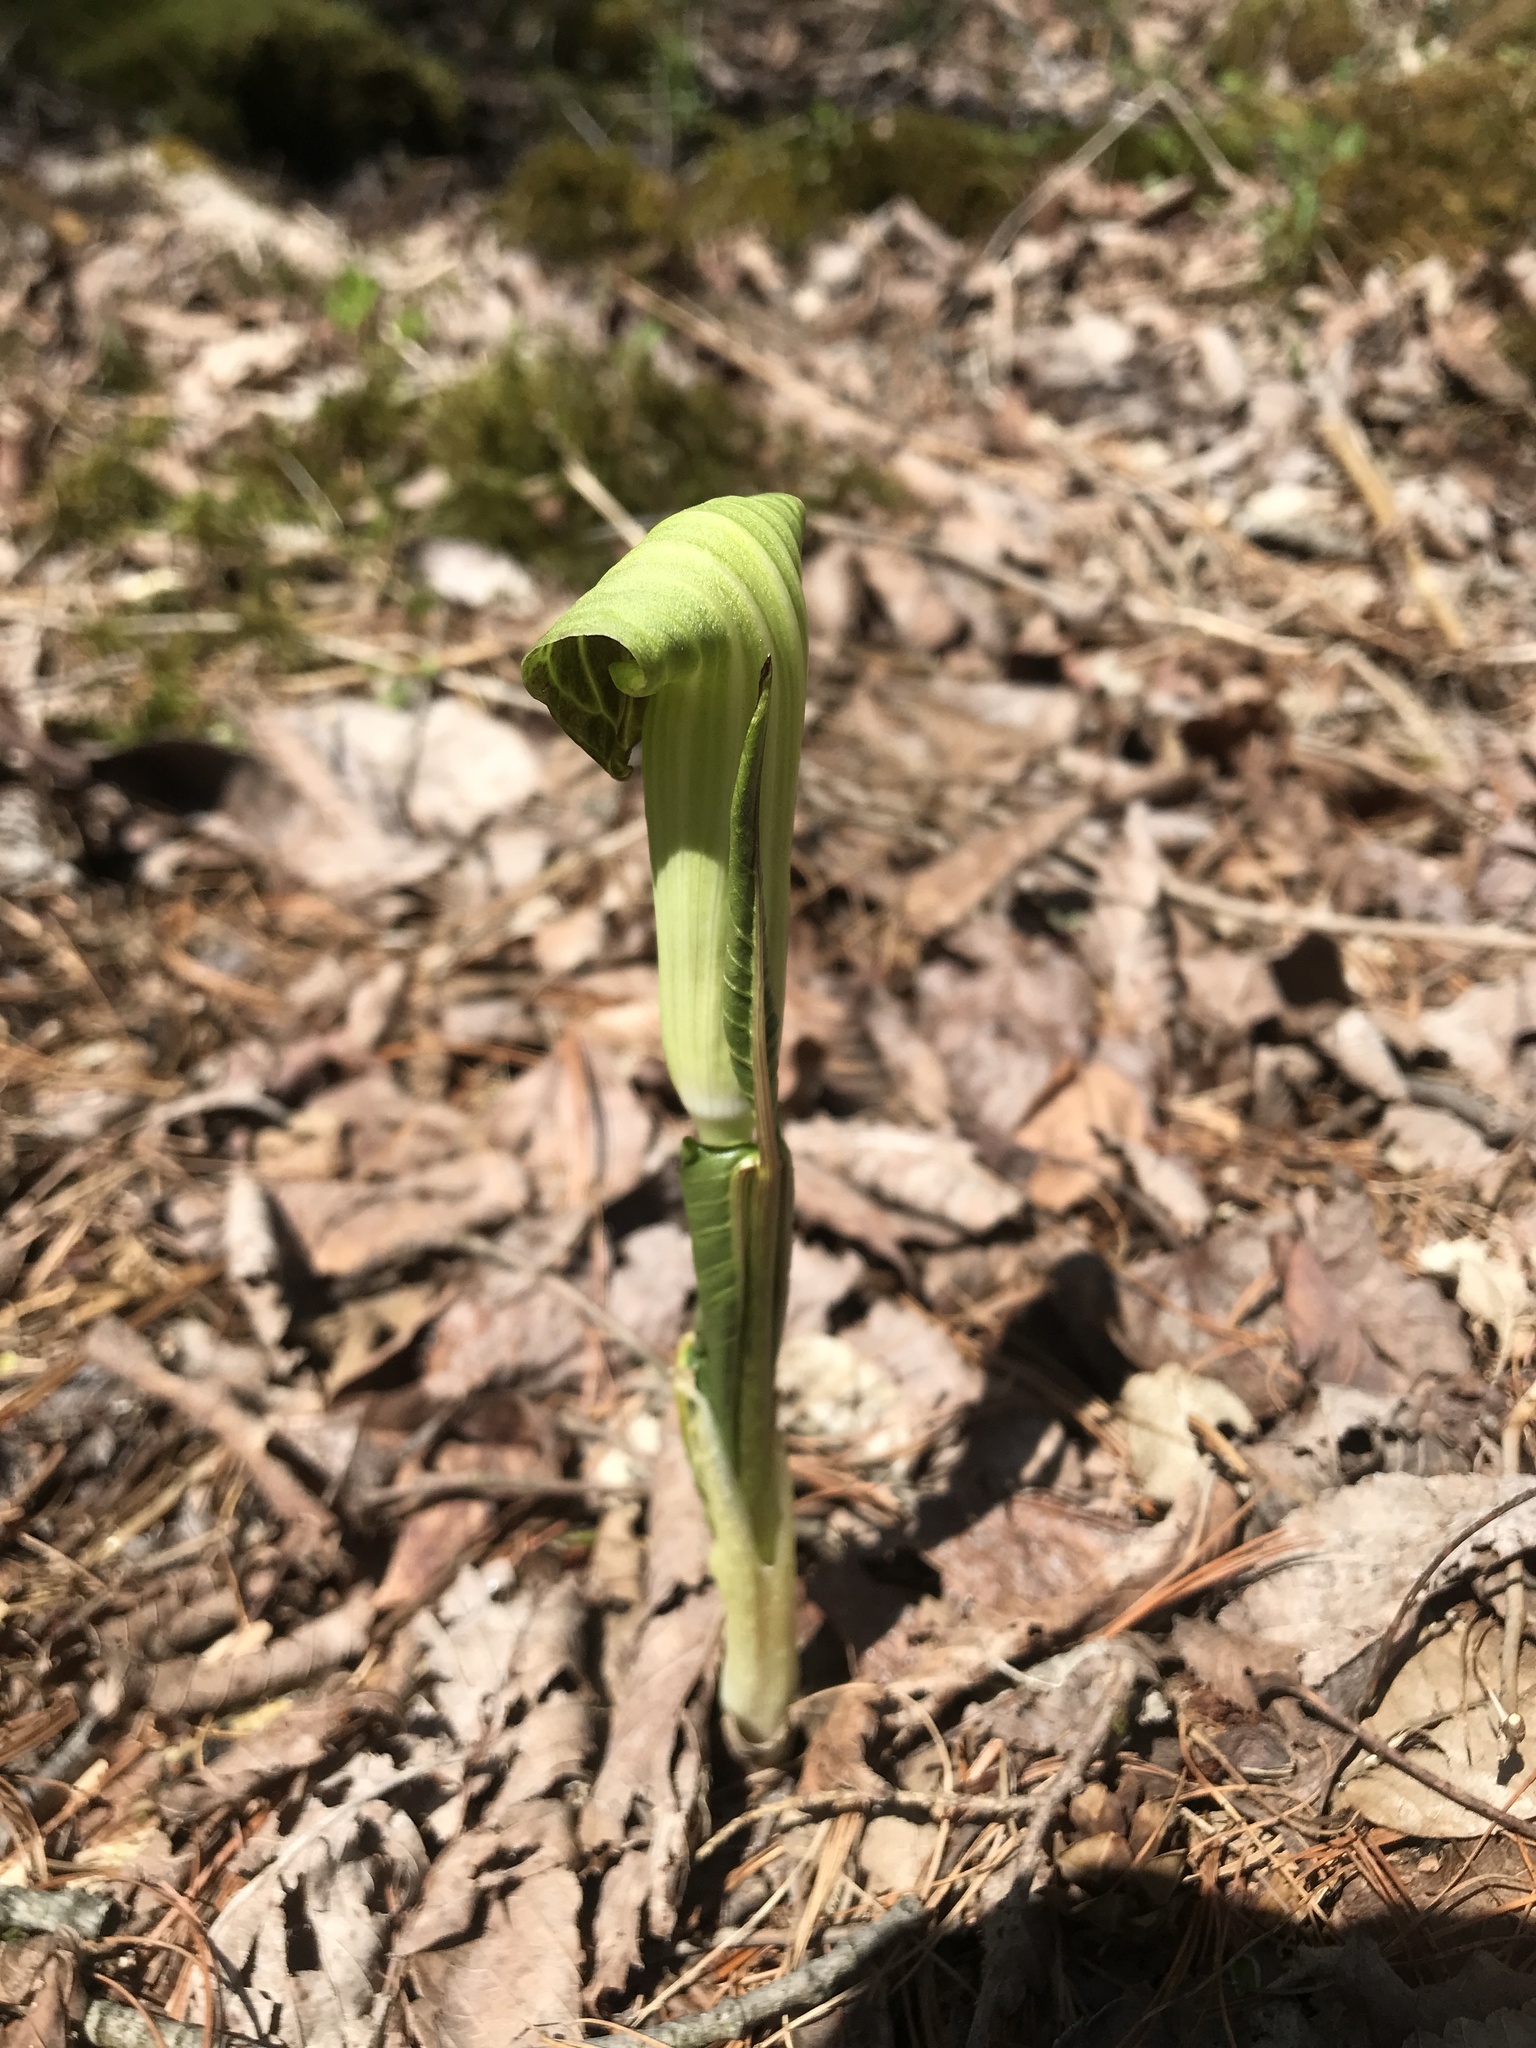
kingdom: Plantae
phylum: Tracheophyta
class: Liliopsida
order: Alismatales
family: Araceae
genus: Arisaema
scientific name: Arisaema triphyllum
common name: Jack-in-the-pulpit
